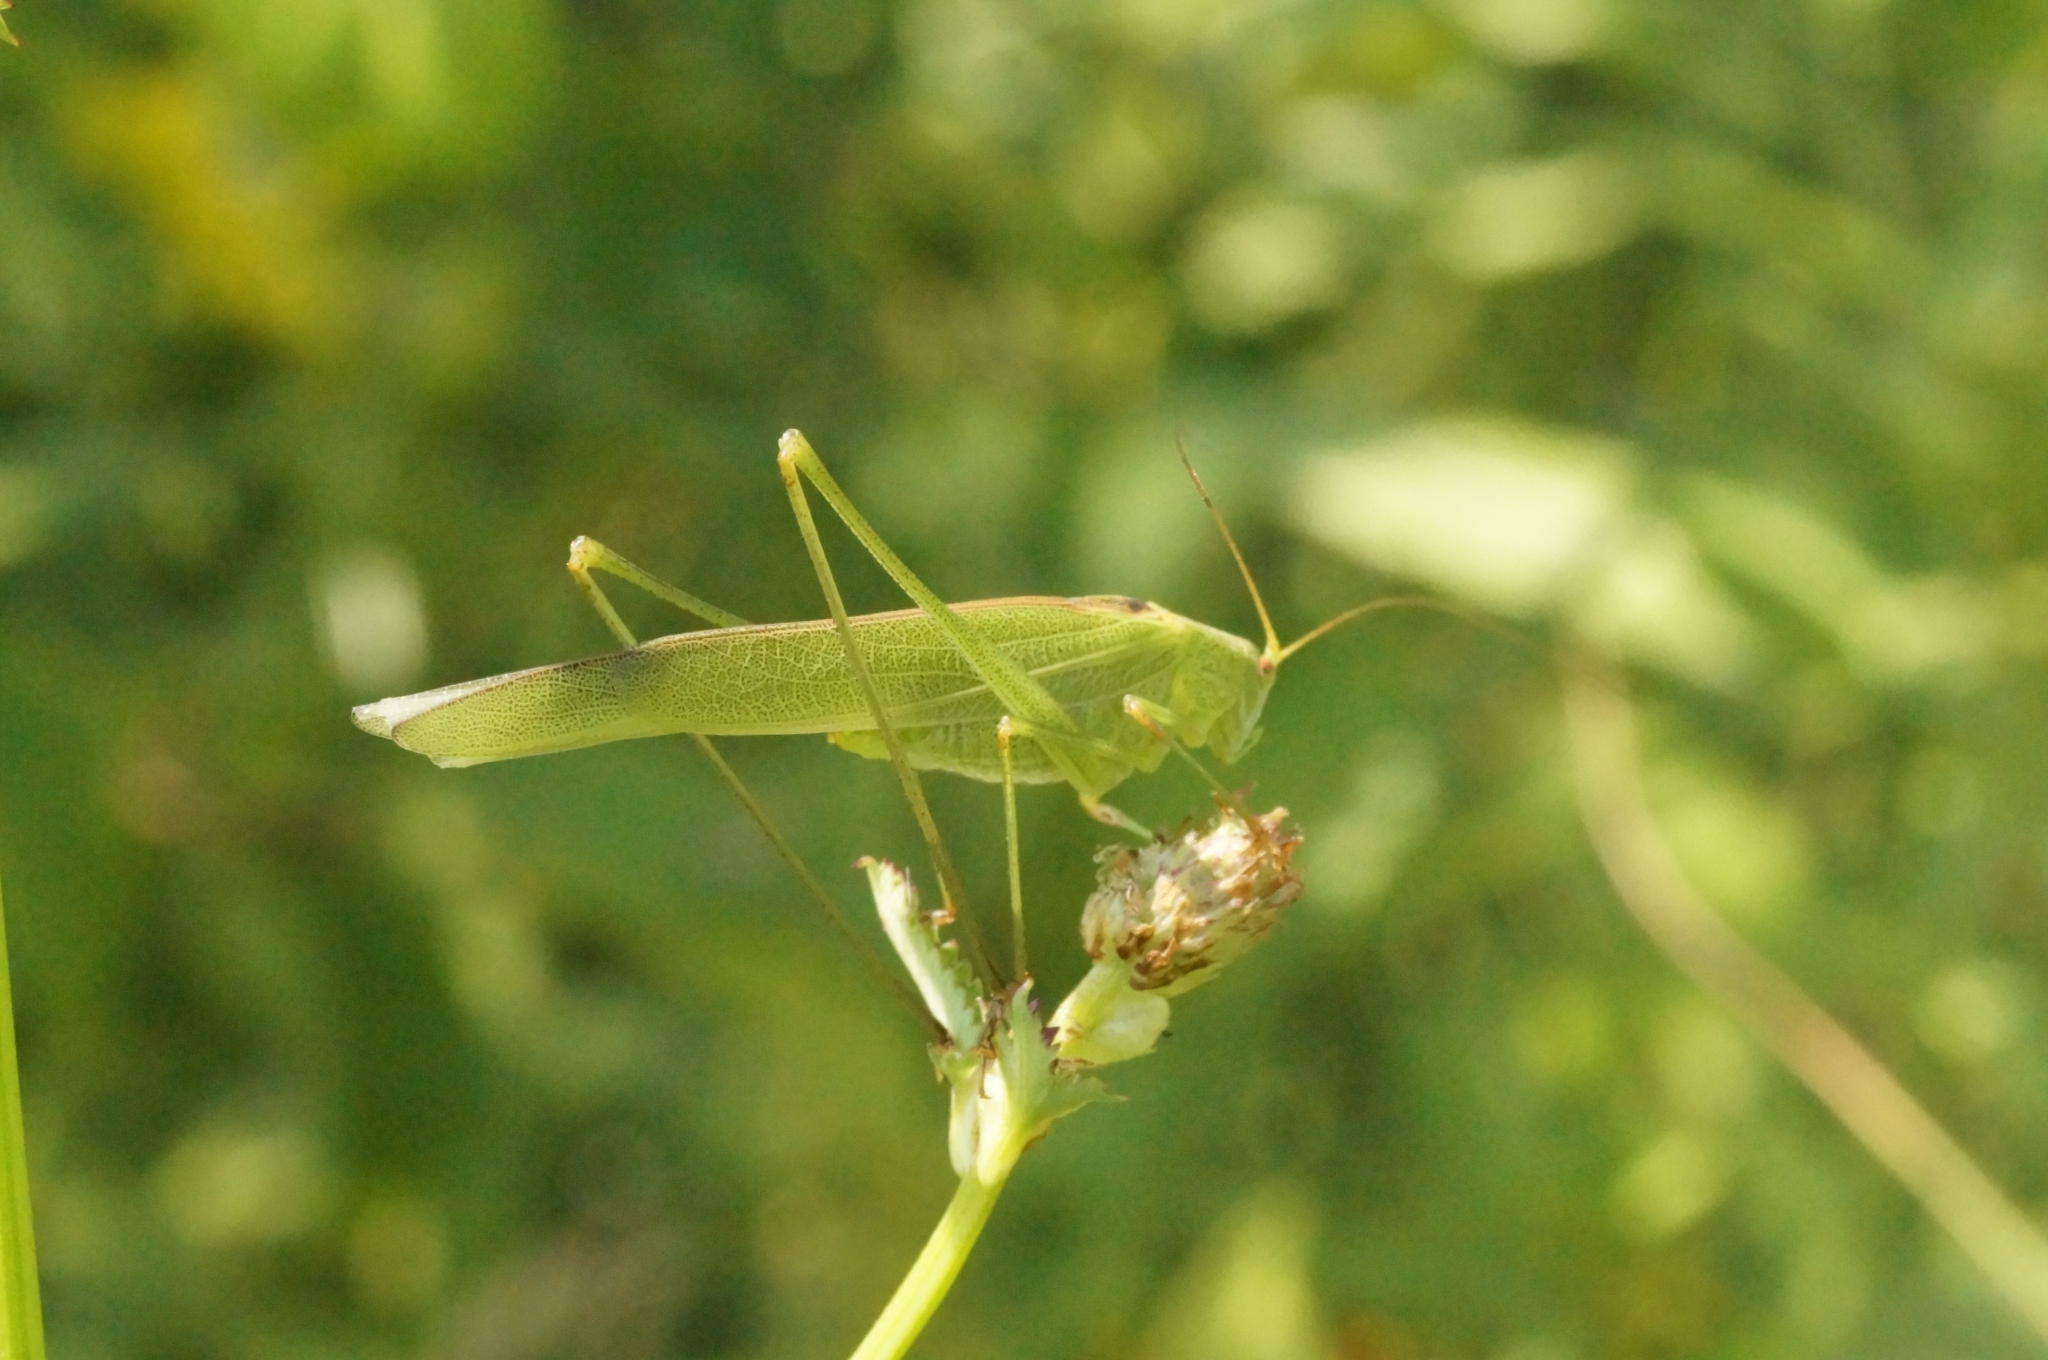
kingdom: Animalia
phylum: Arthropoda
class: Insecta
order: Orthoptera
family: Tettigoniidae
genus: Phaneroptera
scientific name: Phaneroptera falcata
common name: Sickle-bearing bush-cricket
